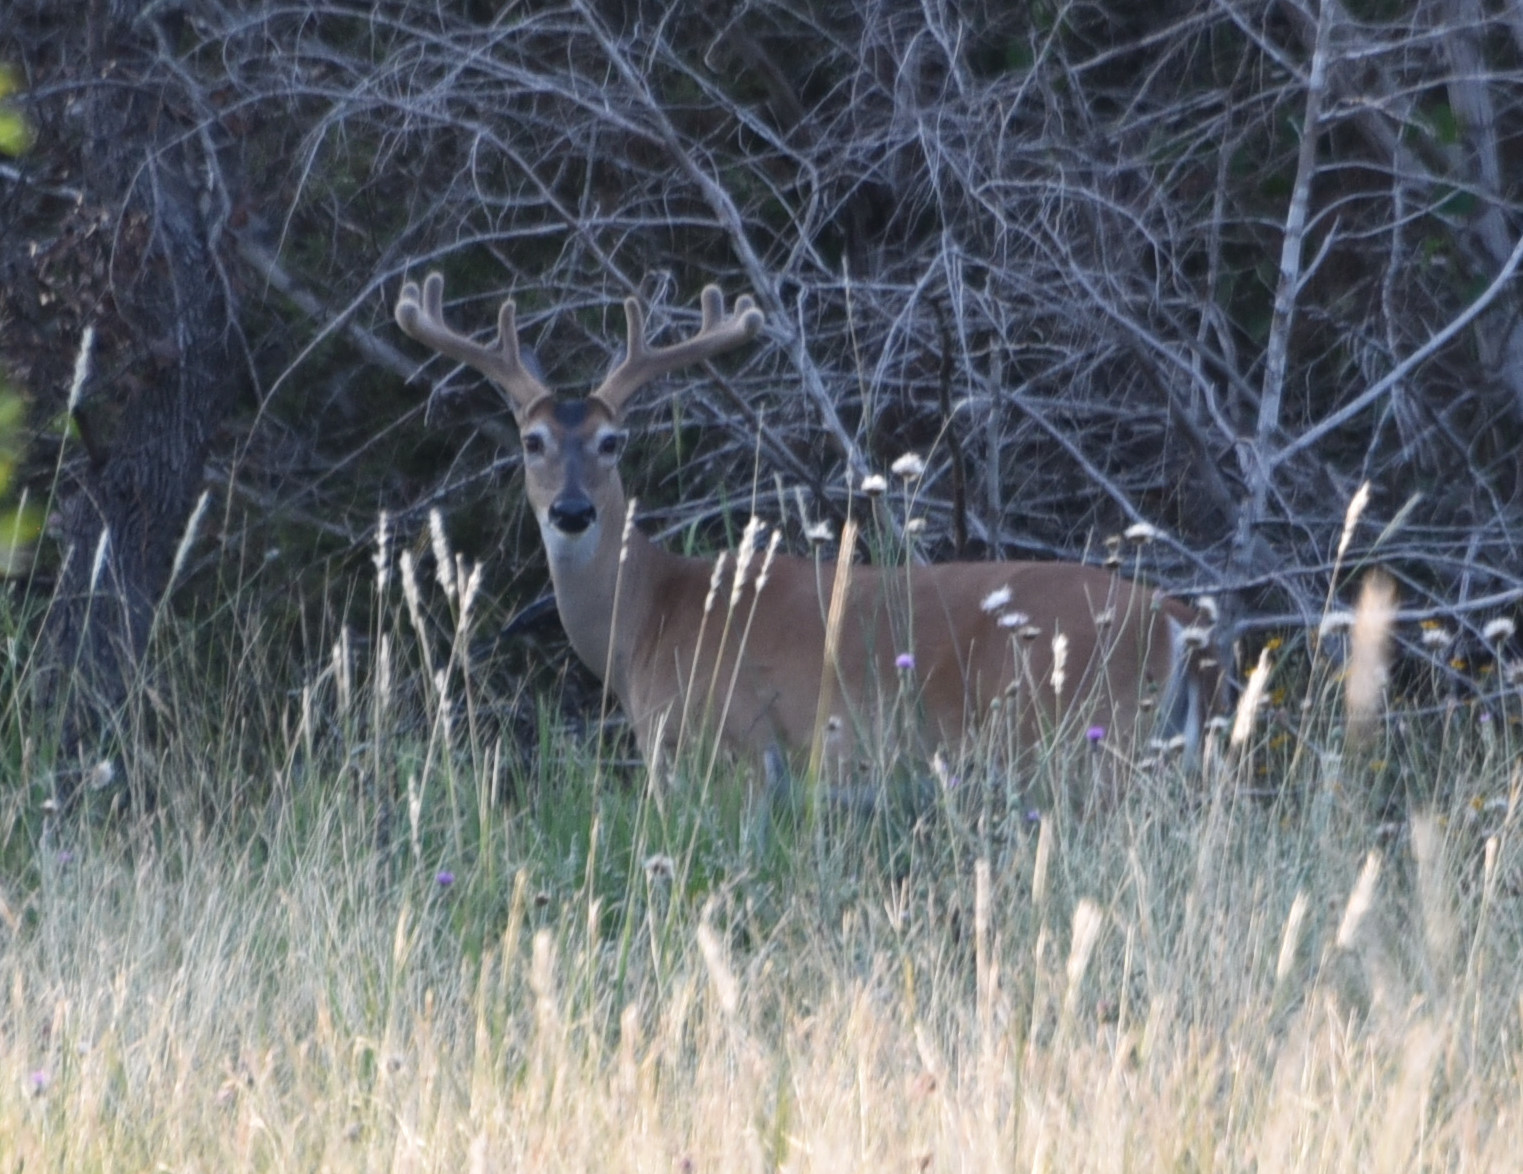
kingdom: Animalia
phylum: Chordata
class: Mammalia
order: Artiodactyla
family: Cervidae
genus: Odocoileus
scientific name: Odocoileus virginianus
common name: White-tailed deer
